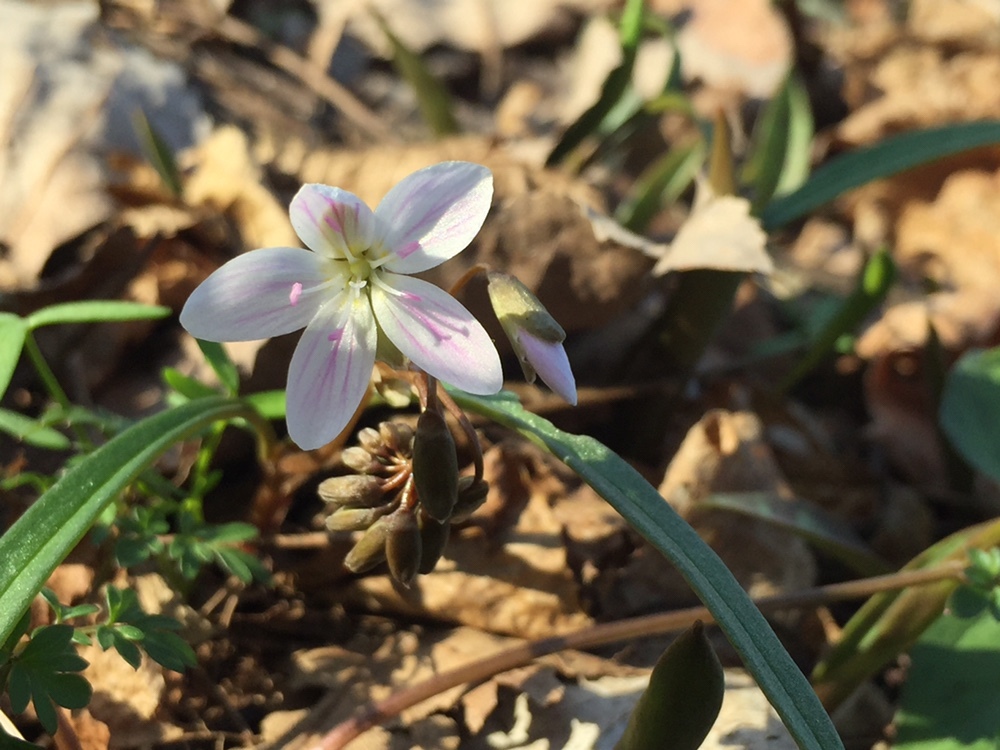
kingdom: Plantae
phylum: Tracheophyta
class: Magnoliopsida
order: Caryophyllales
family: Montiaceae
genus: Claytonia
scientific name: Claytonia virginica
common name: Virginia springbeauty
